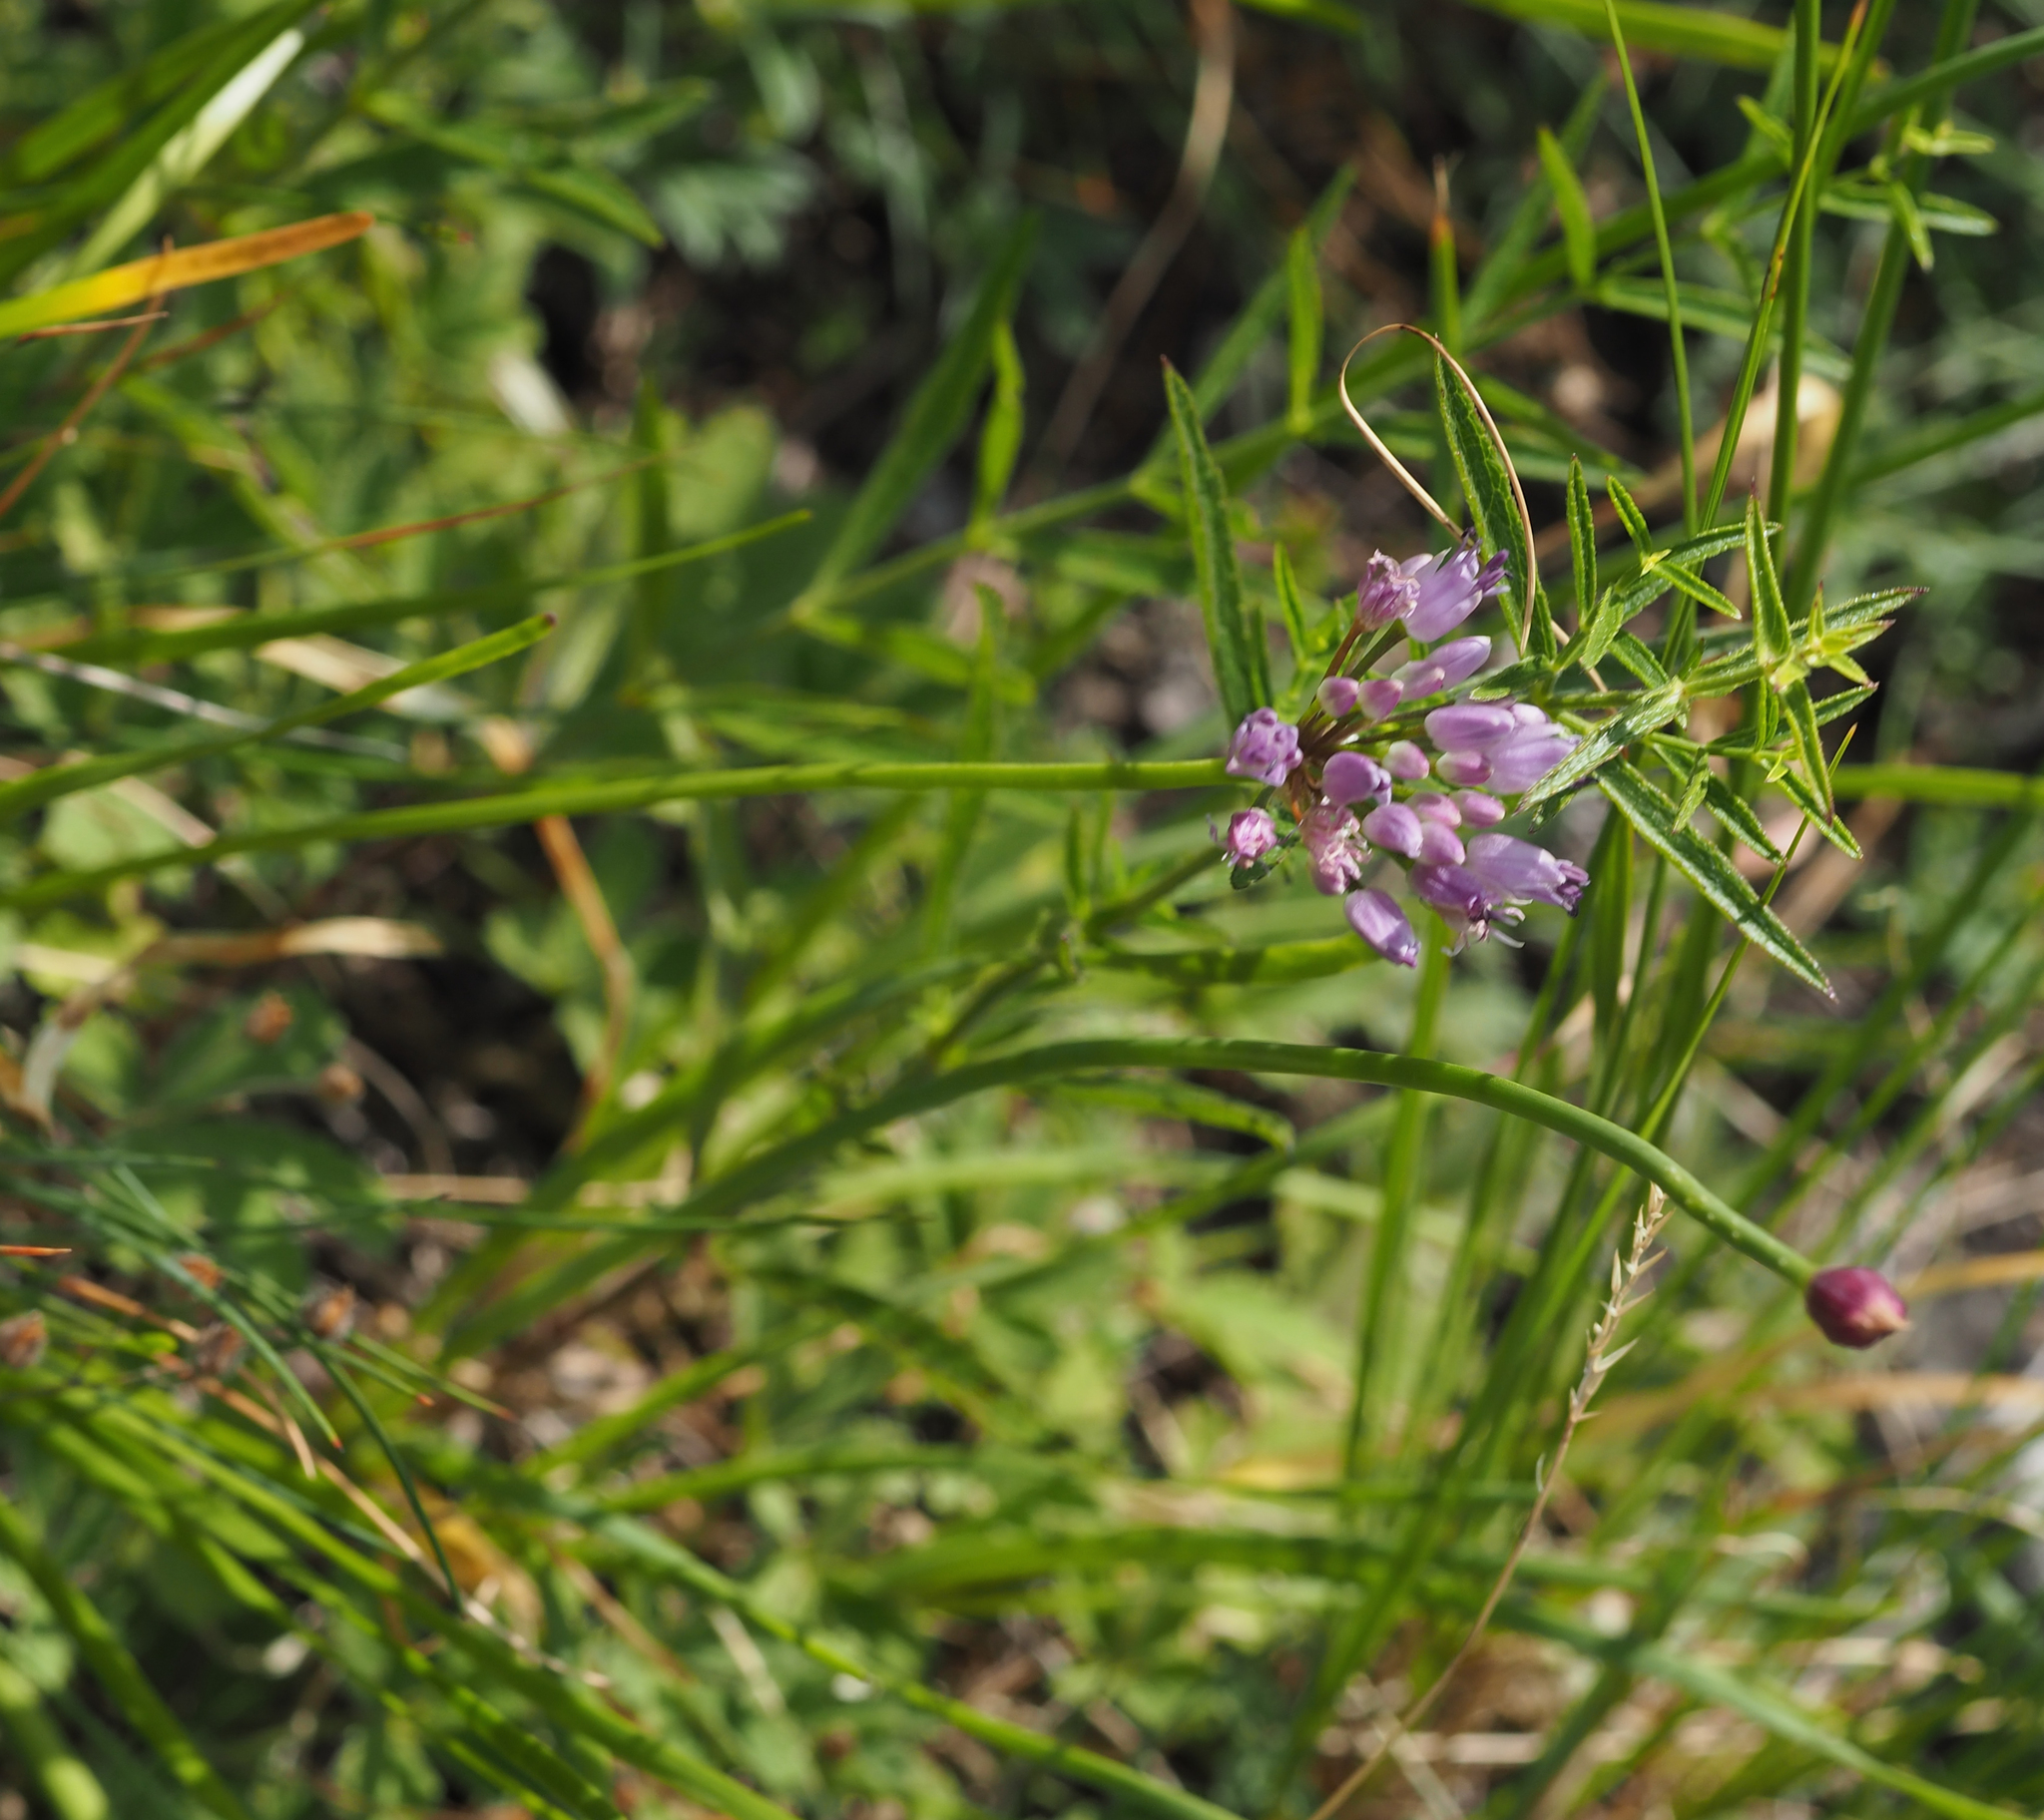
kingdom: Plantae
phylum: Tracheophyta
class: Liliopsida
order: Asparagales
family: Amaryllidaceae
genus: Allium
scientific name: Allium lusitanicum
